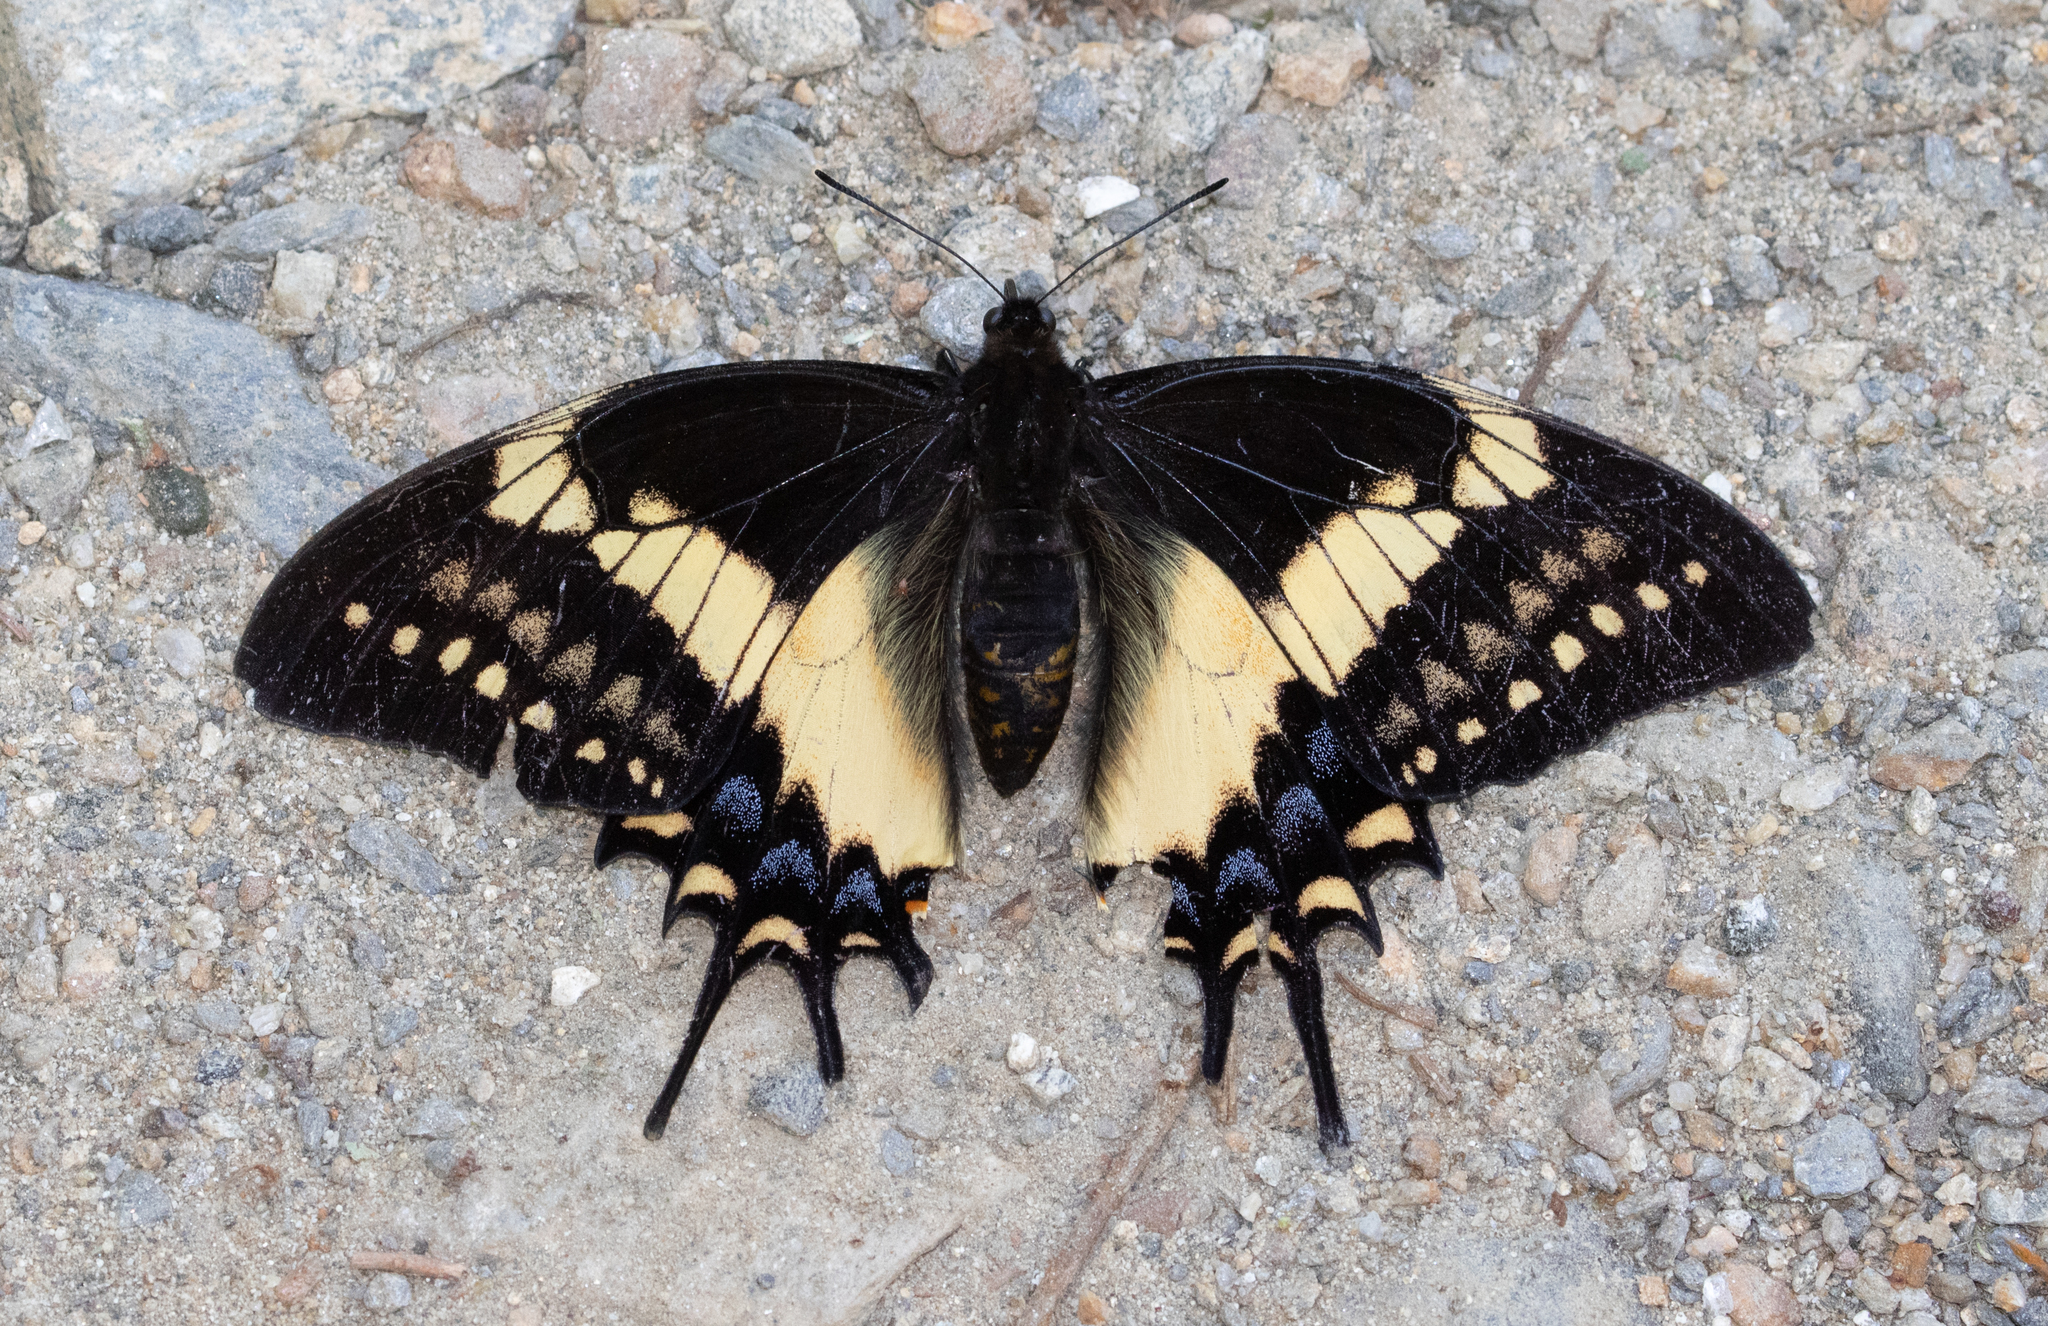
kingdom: Animalia
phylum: Arthropoda
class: Insecta
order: Lepidoptera
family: Papilionidae
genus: Papilio
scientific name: Papilio cacicus
